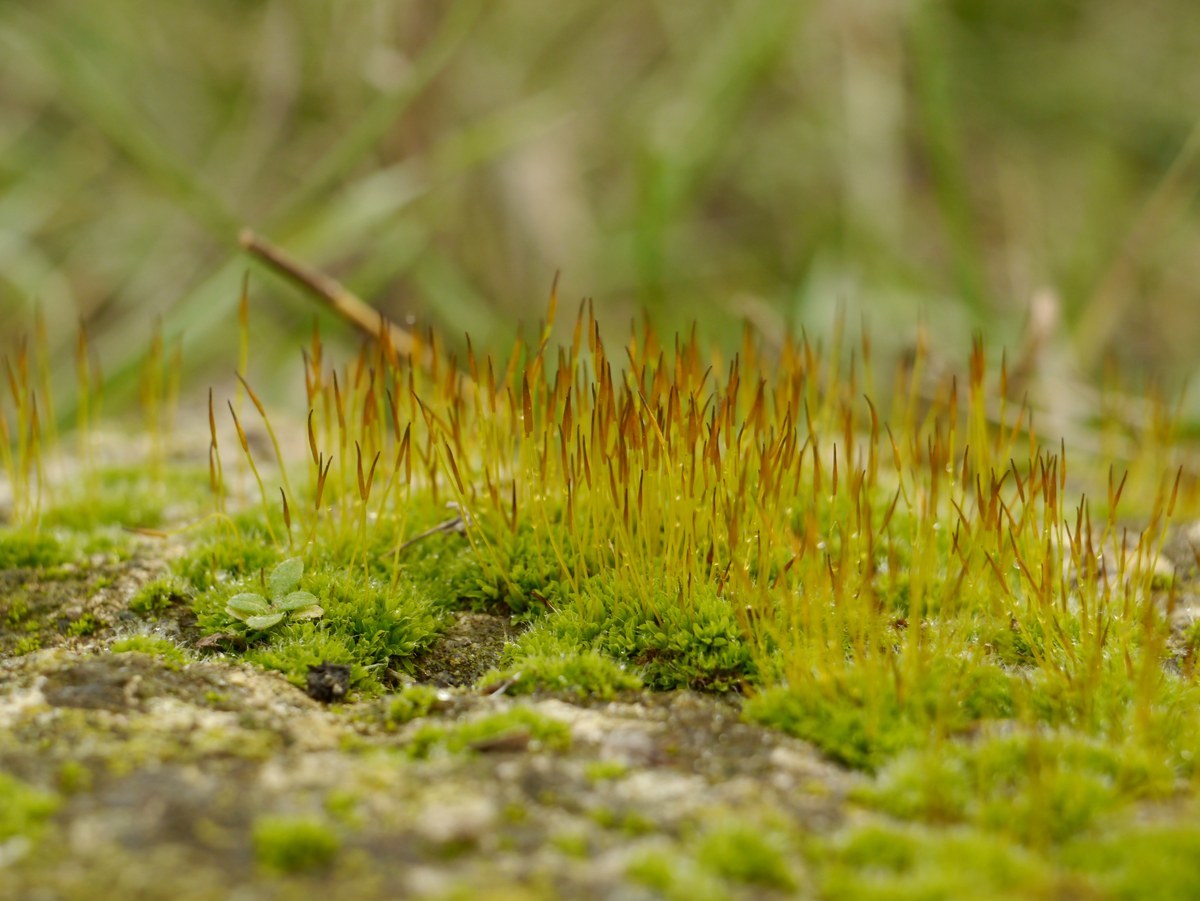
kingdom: Plantae
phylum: Bryophyta
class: Bryopsida
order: Pottiales
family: Pottiaceae
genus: Tortula
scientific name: Tortula muralis
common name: Wall screw-moss
